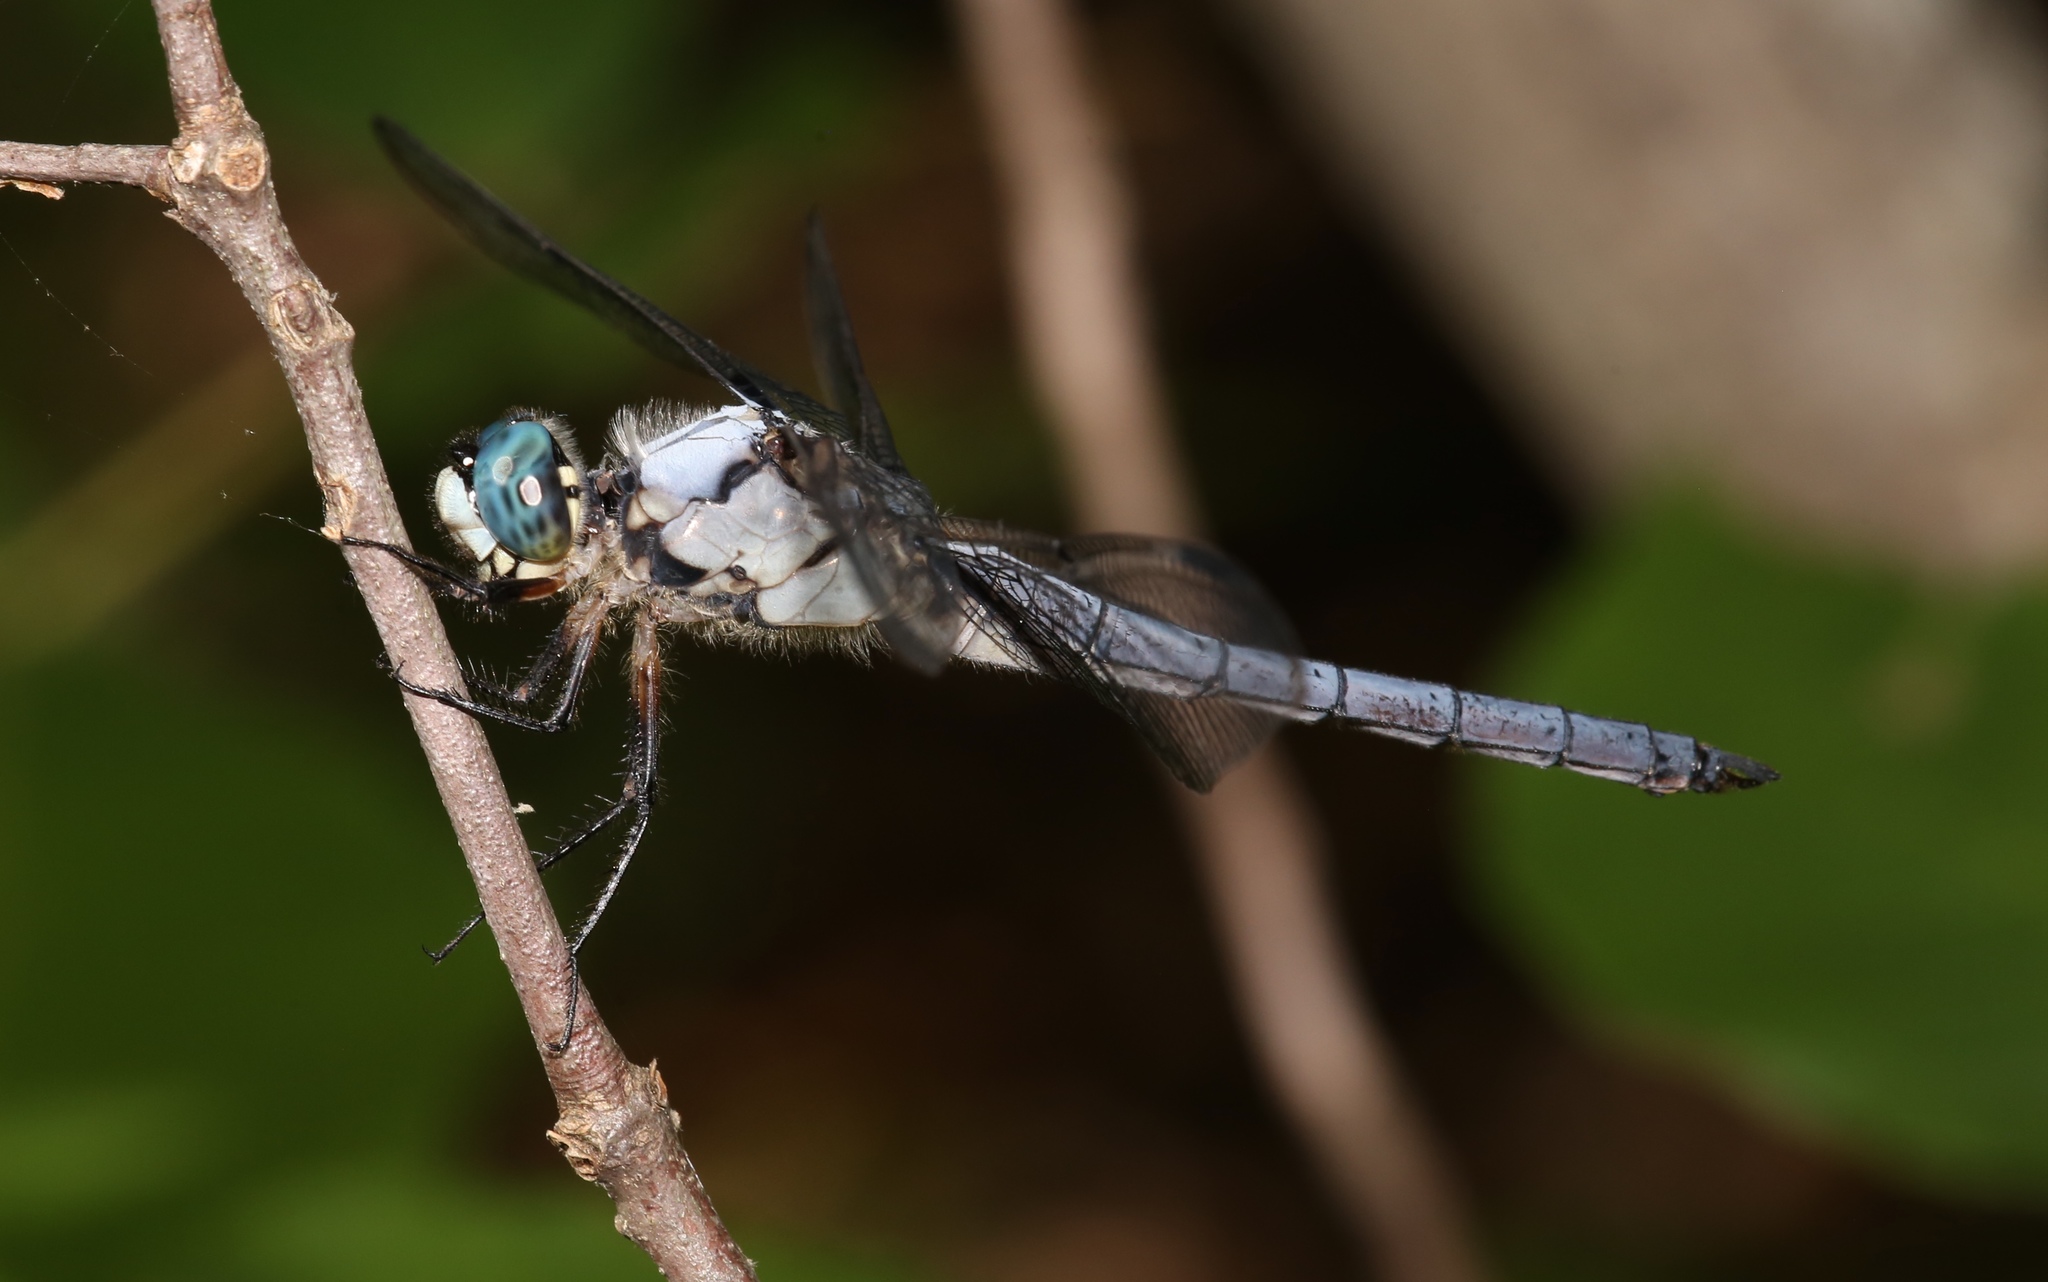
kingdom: Animalia
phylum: Arthropoda
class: Insecta
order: Odonata
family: Libellulidae
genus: Libellula
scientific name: Libellula vibrans
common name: Great blue skimmer
